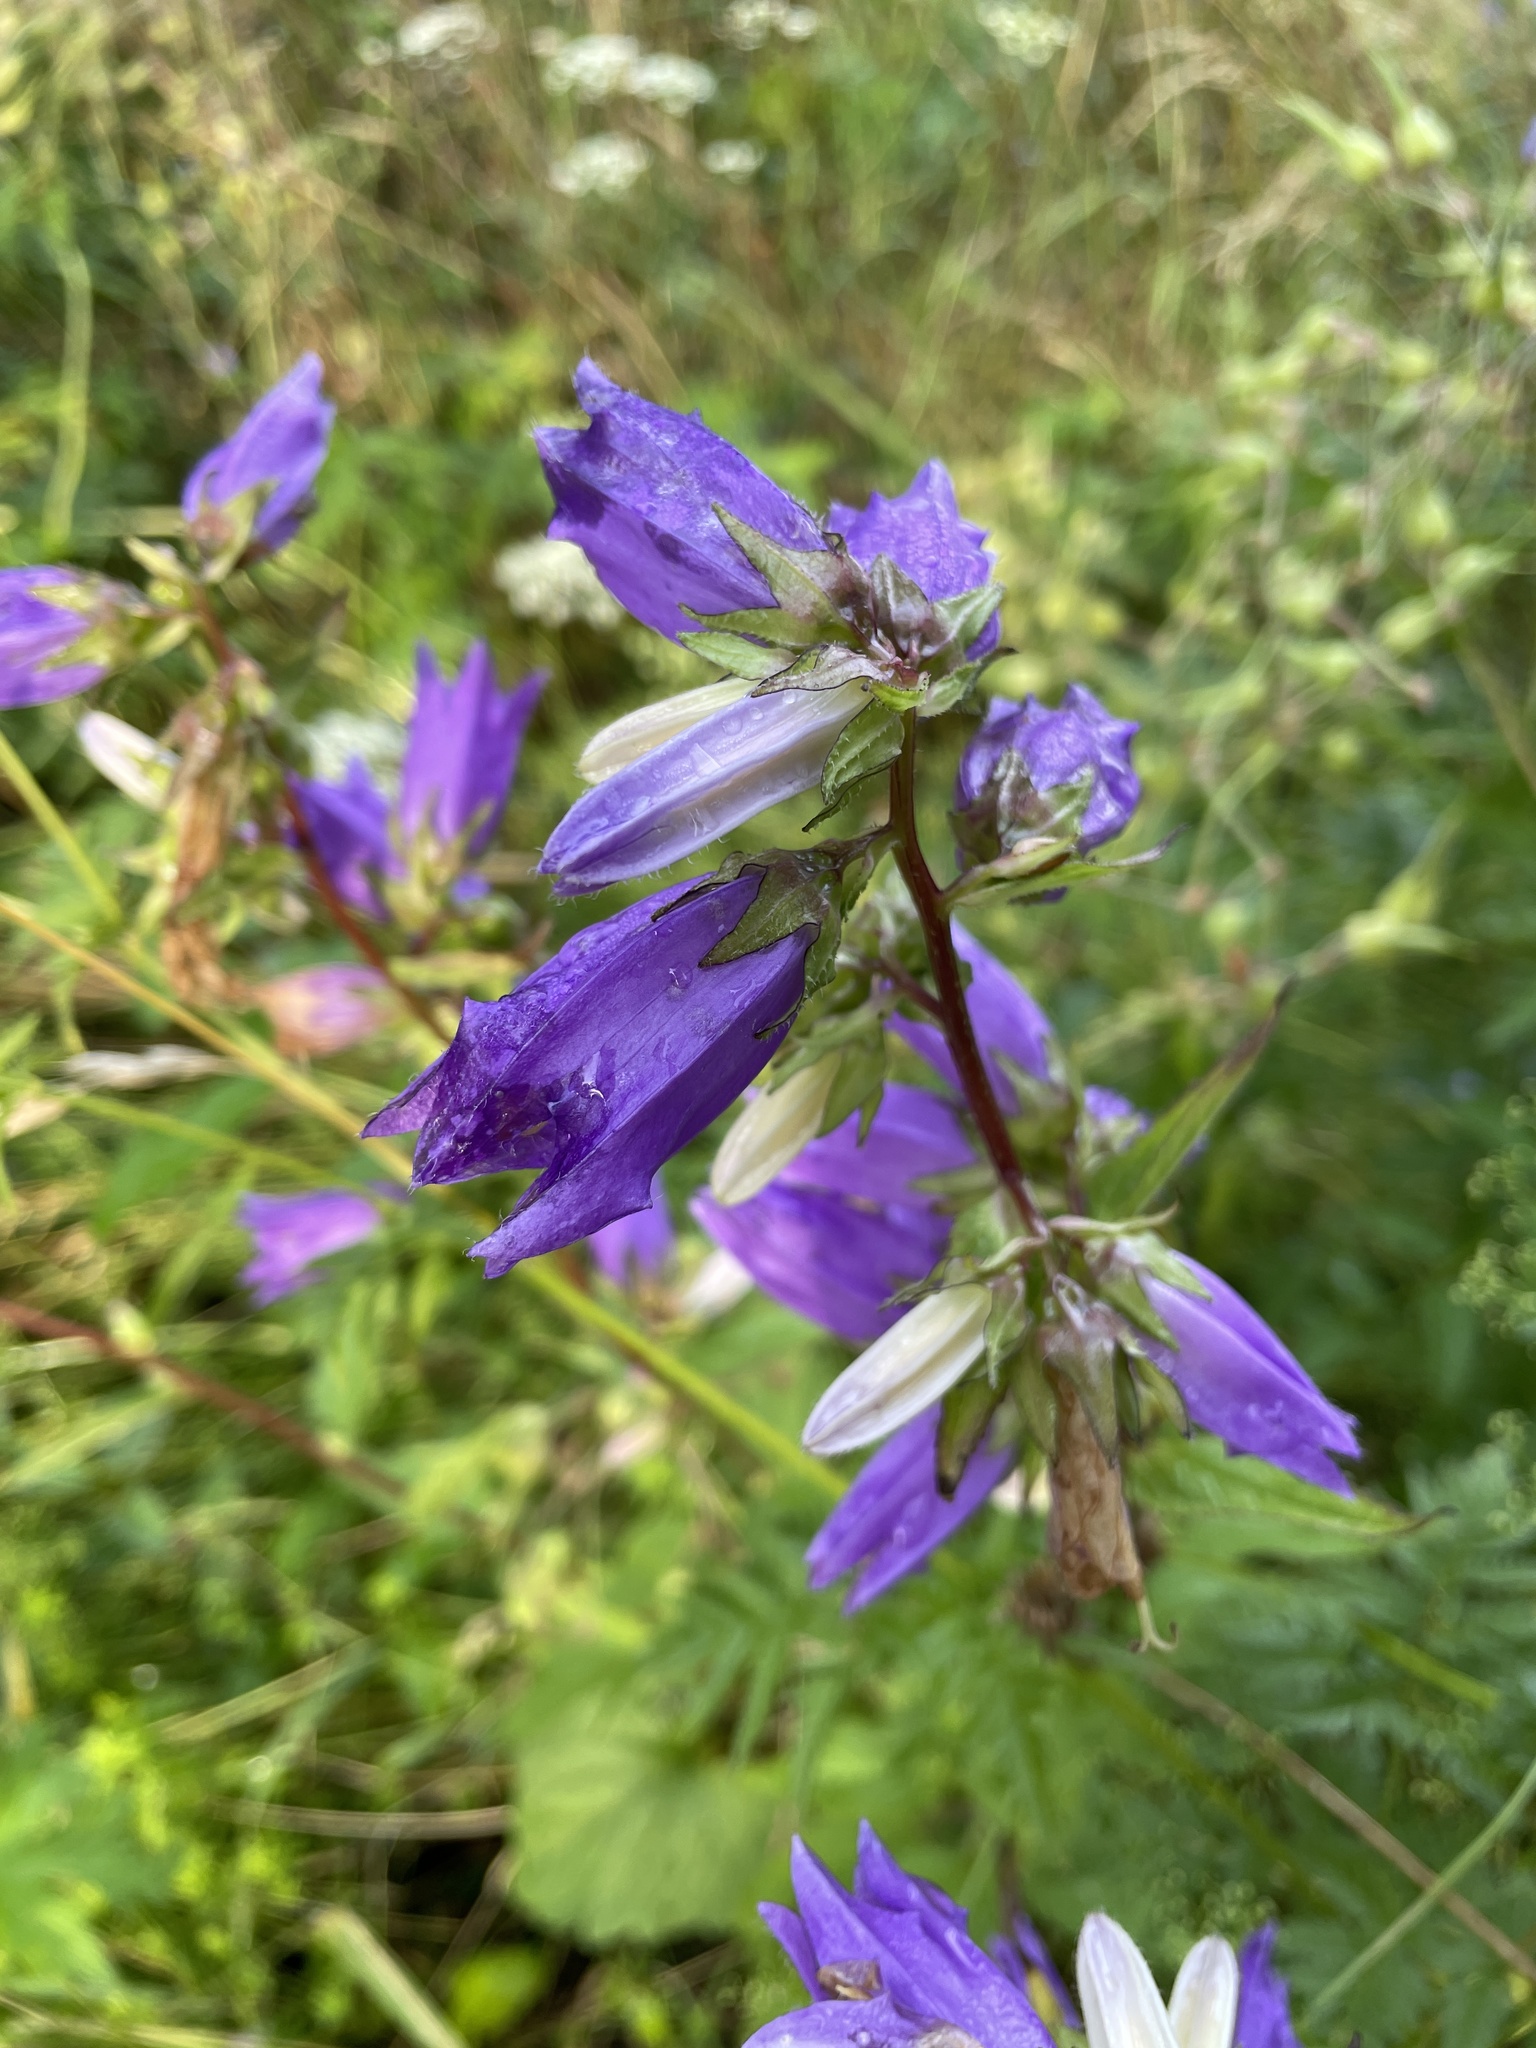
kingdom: Plantae
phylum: Tracheophyta
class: Magnoliopsida
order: Asterales
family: Campanulaceae
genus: Campanula
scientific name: Campanula trachelium
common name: Nettle-leaved bellflower
